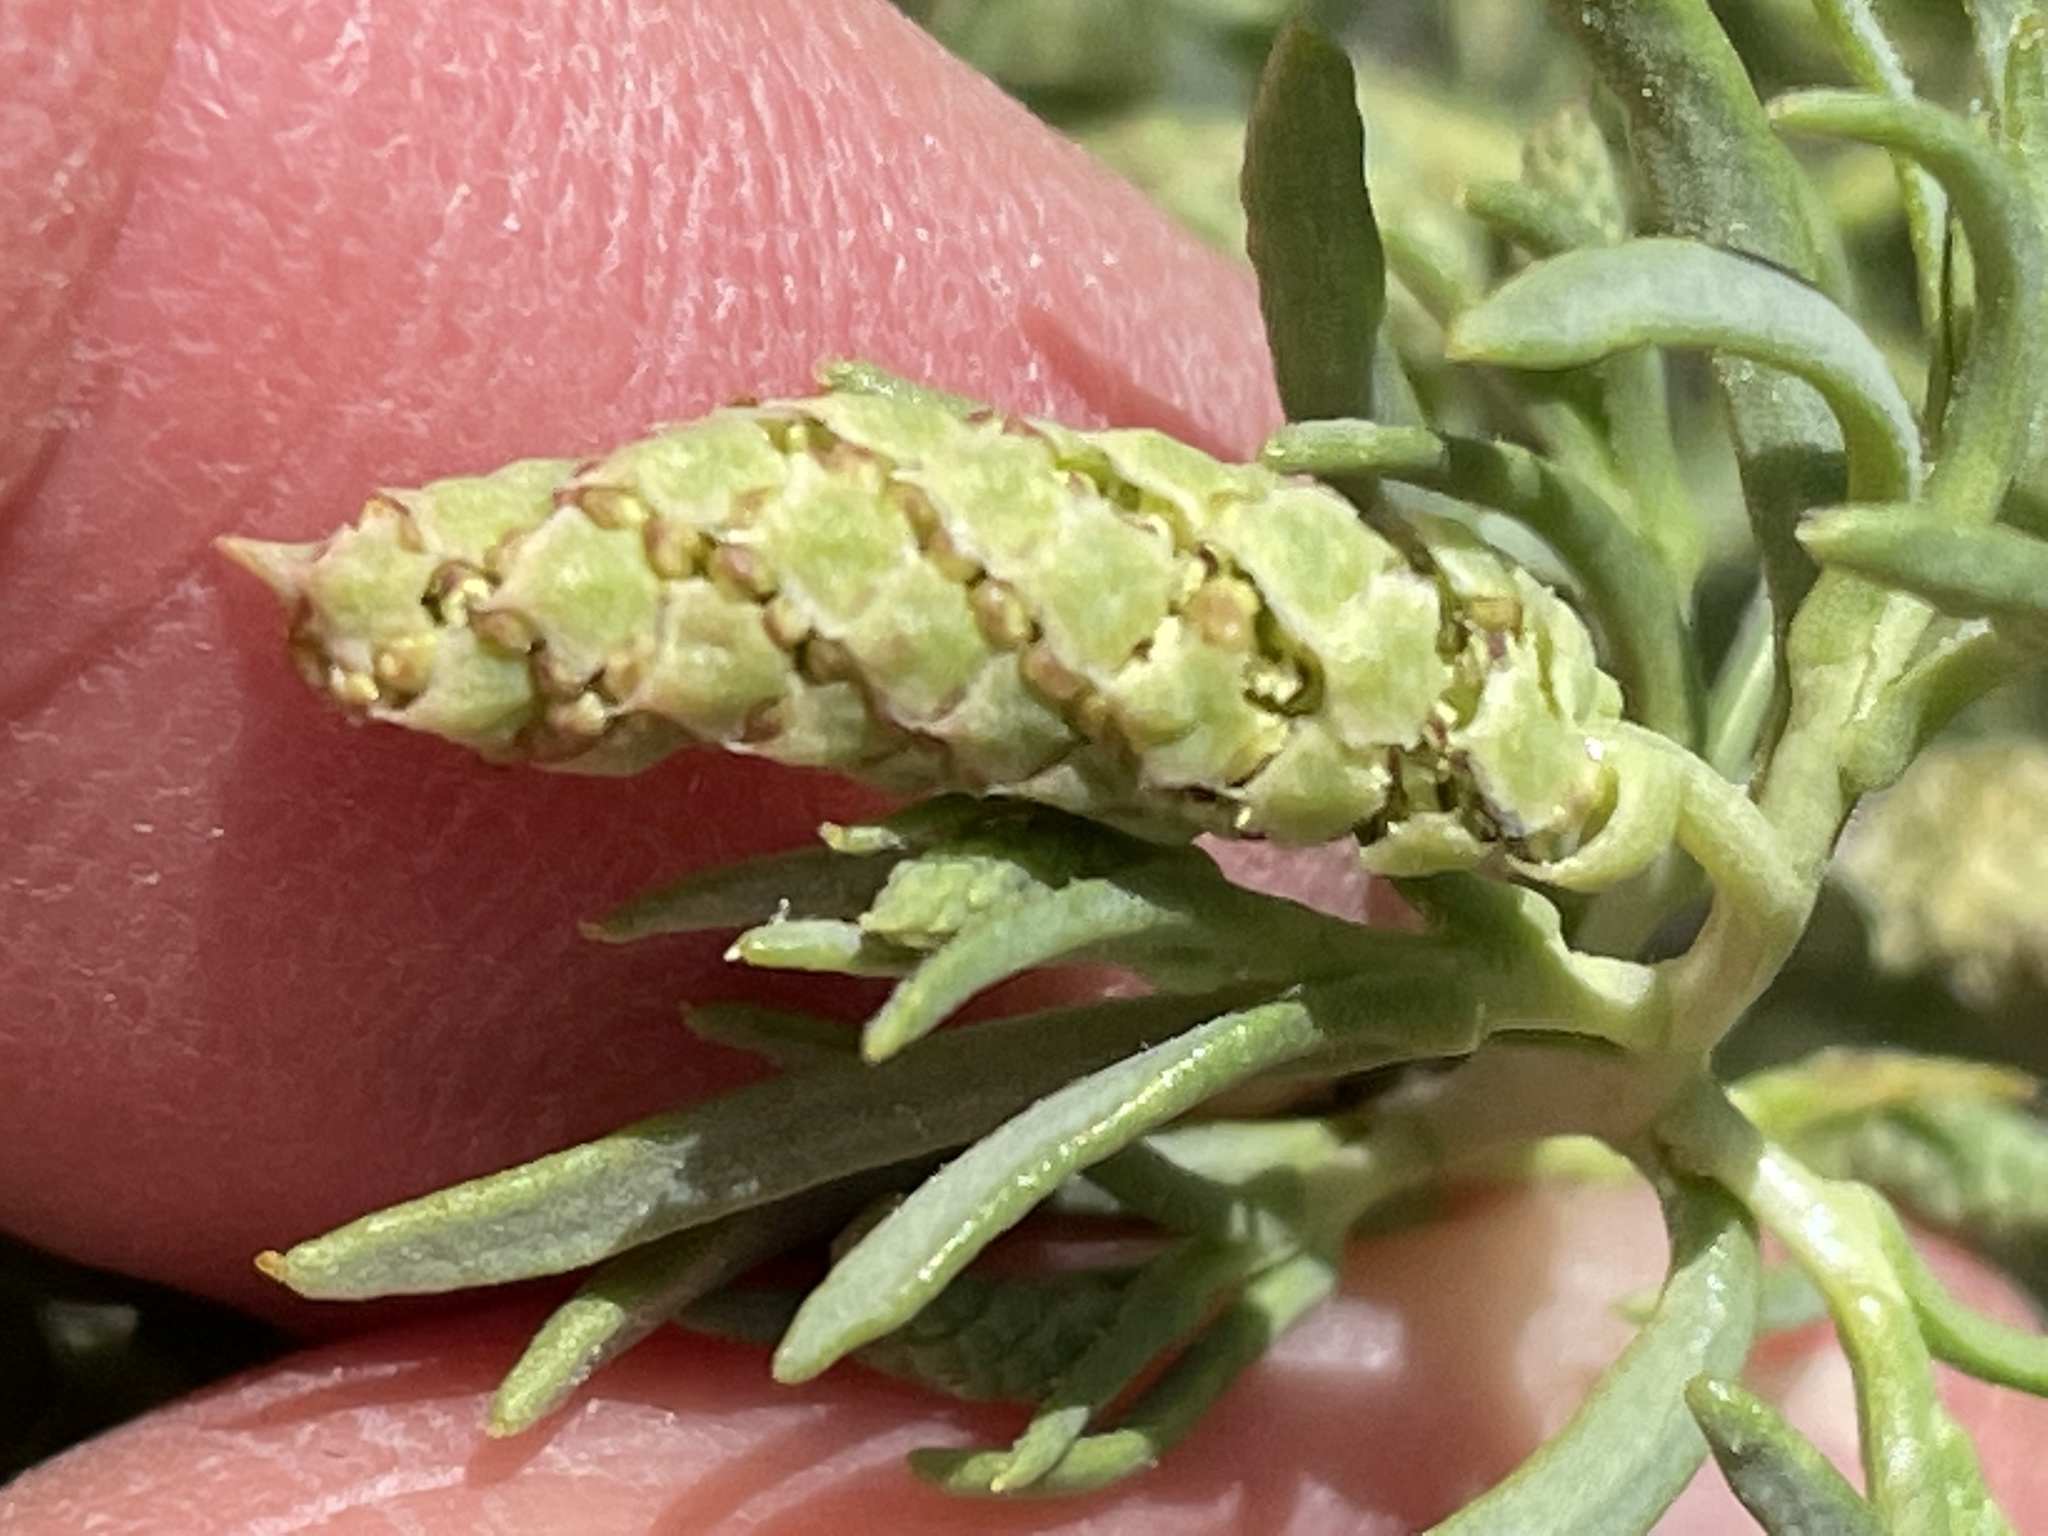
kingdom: Plantae
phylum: Tracheophyta
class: Magnoliopsida
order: Caryophyllales
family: Sarcobataceae
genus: Sarcobatus
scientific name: Sarcobatus vermiculatus
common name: Greasewood
